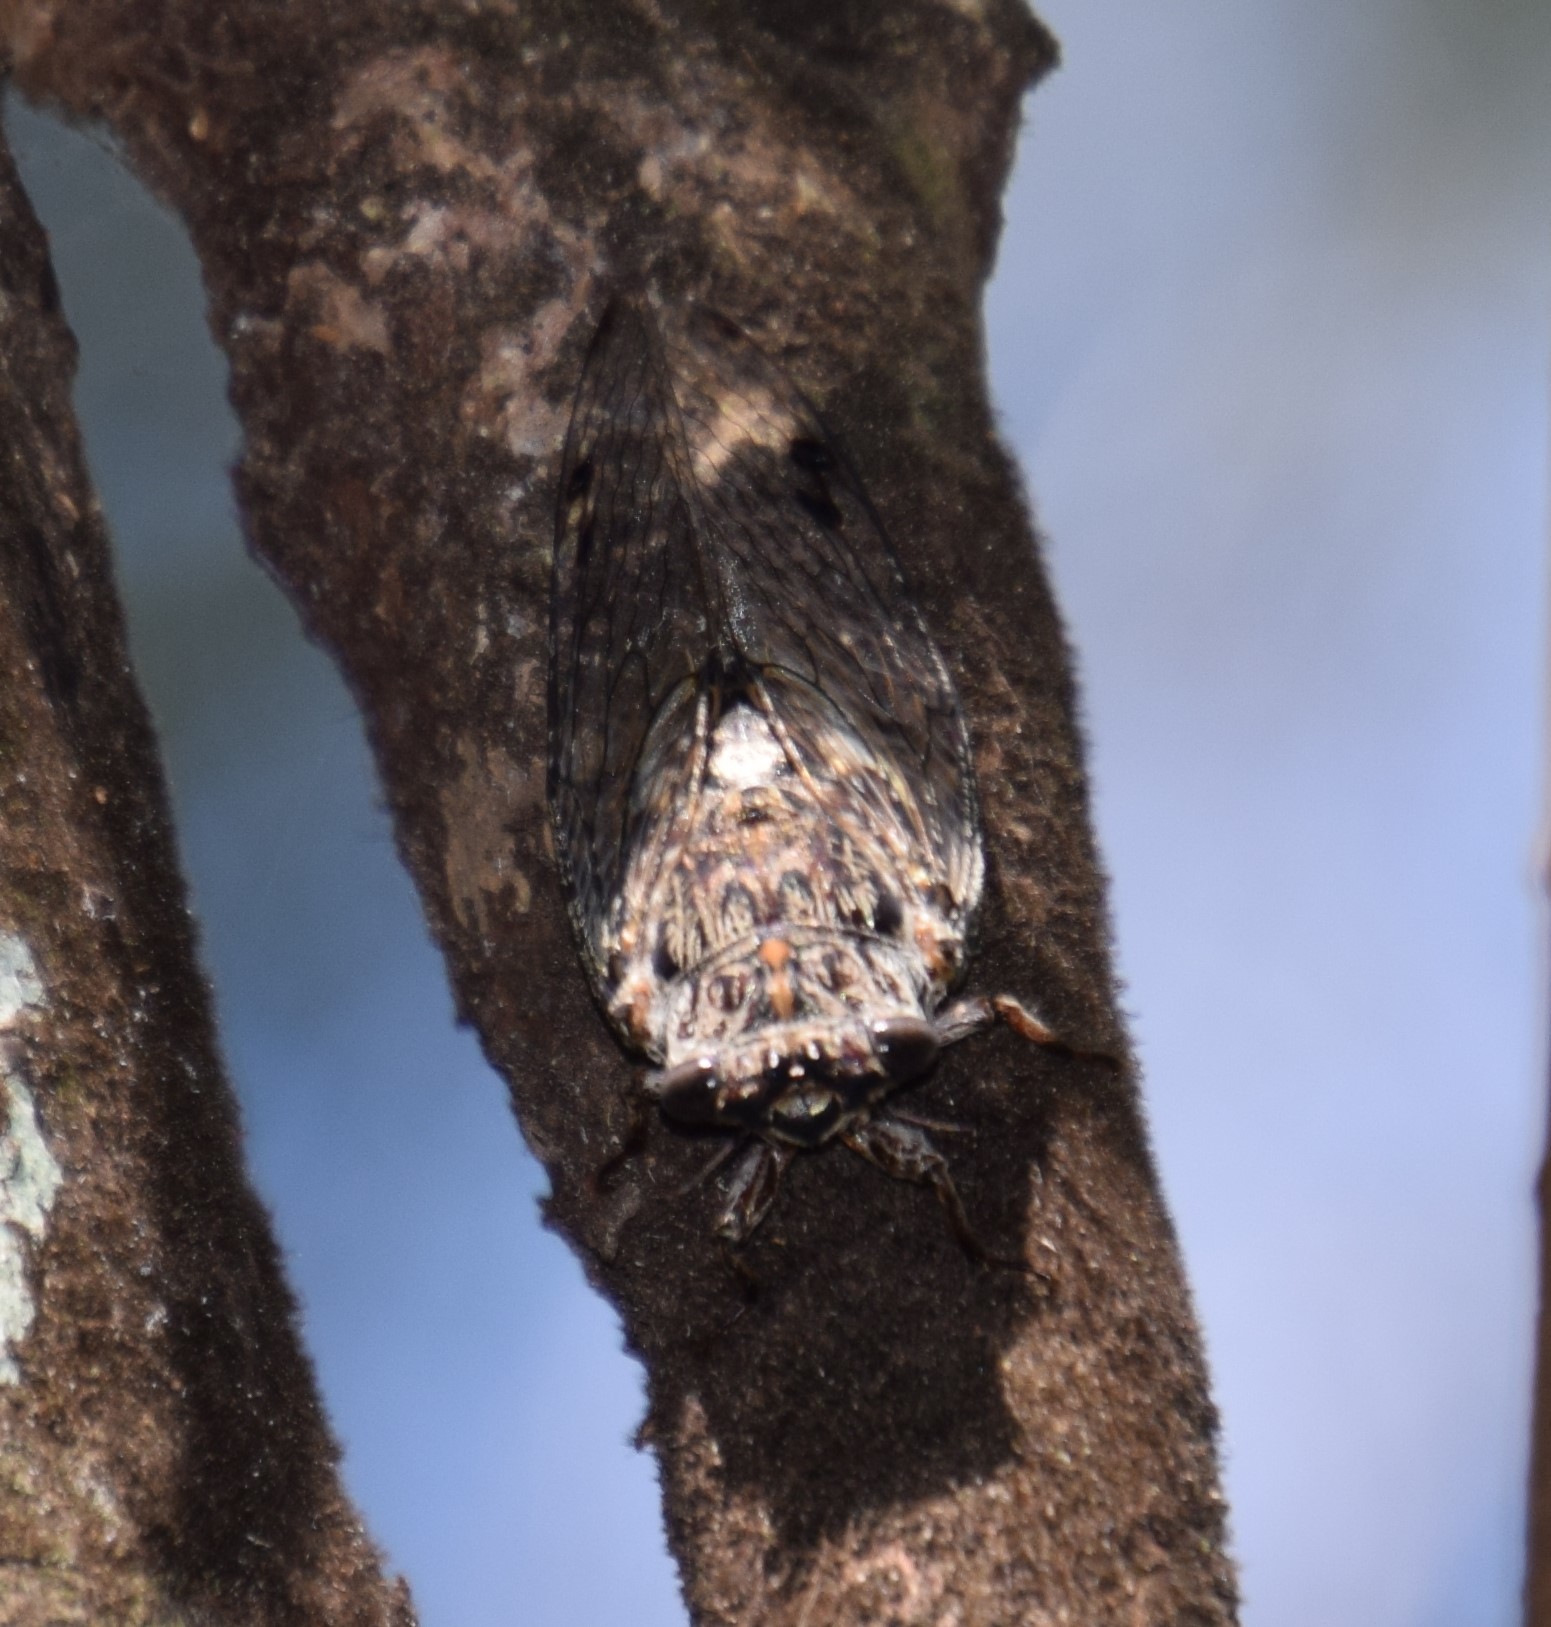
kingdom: Animalia
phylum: Arthropoda
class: Insecta
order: Hemiptera
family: Cicadidae
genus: Aleeta
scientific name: Aleeta curvicosta
